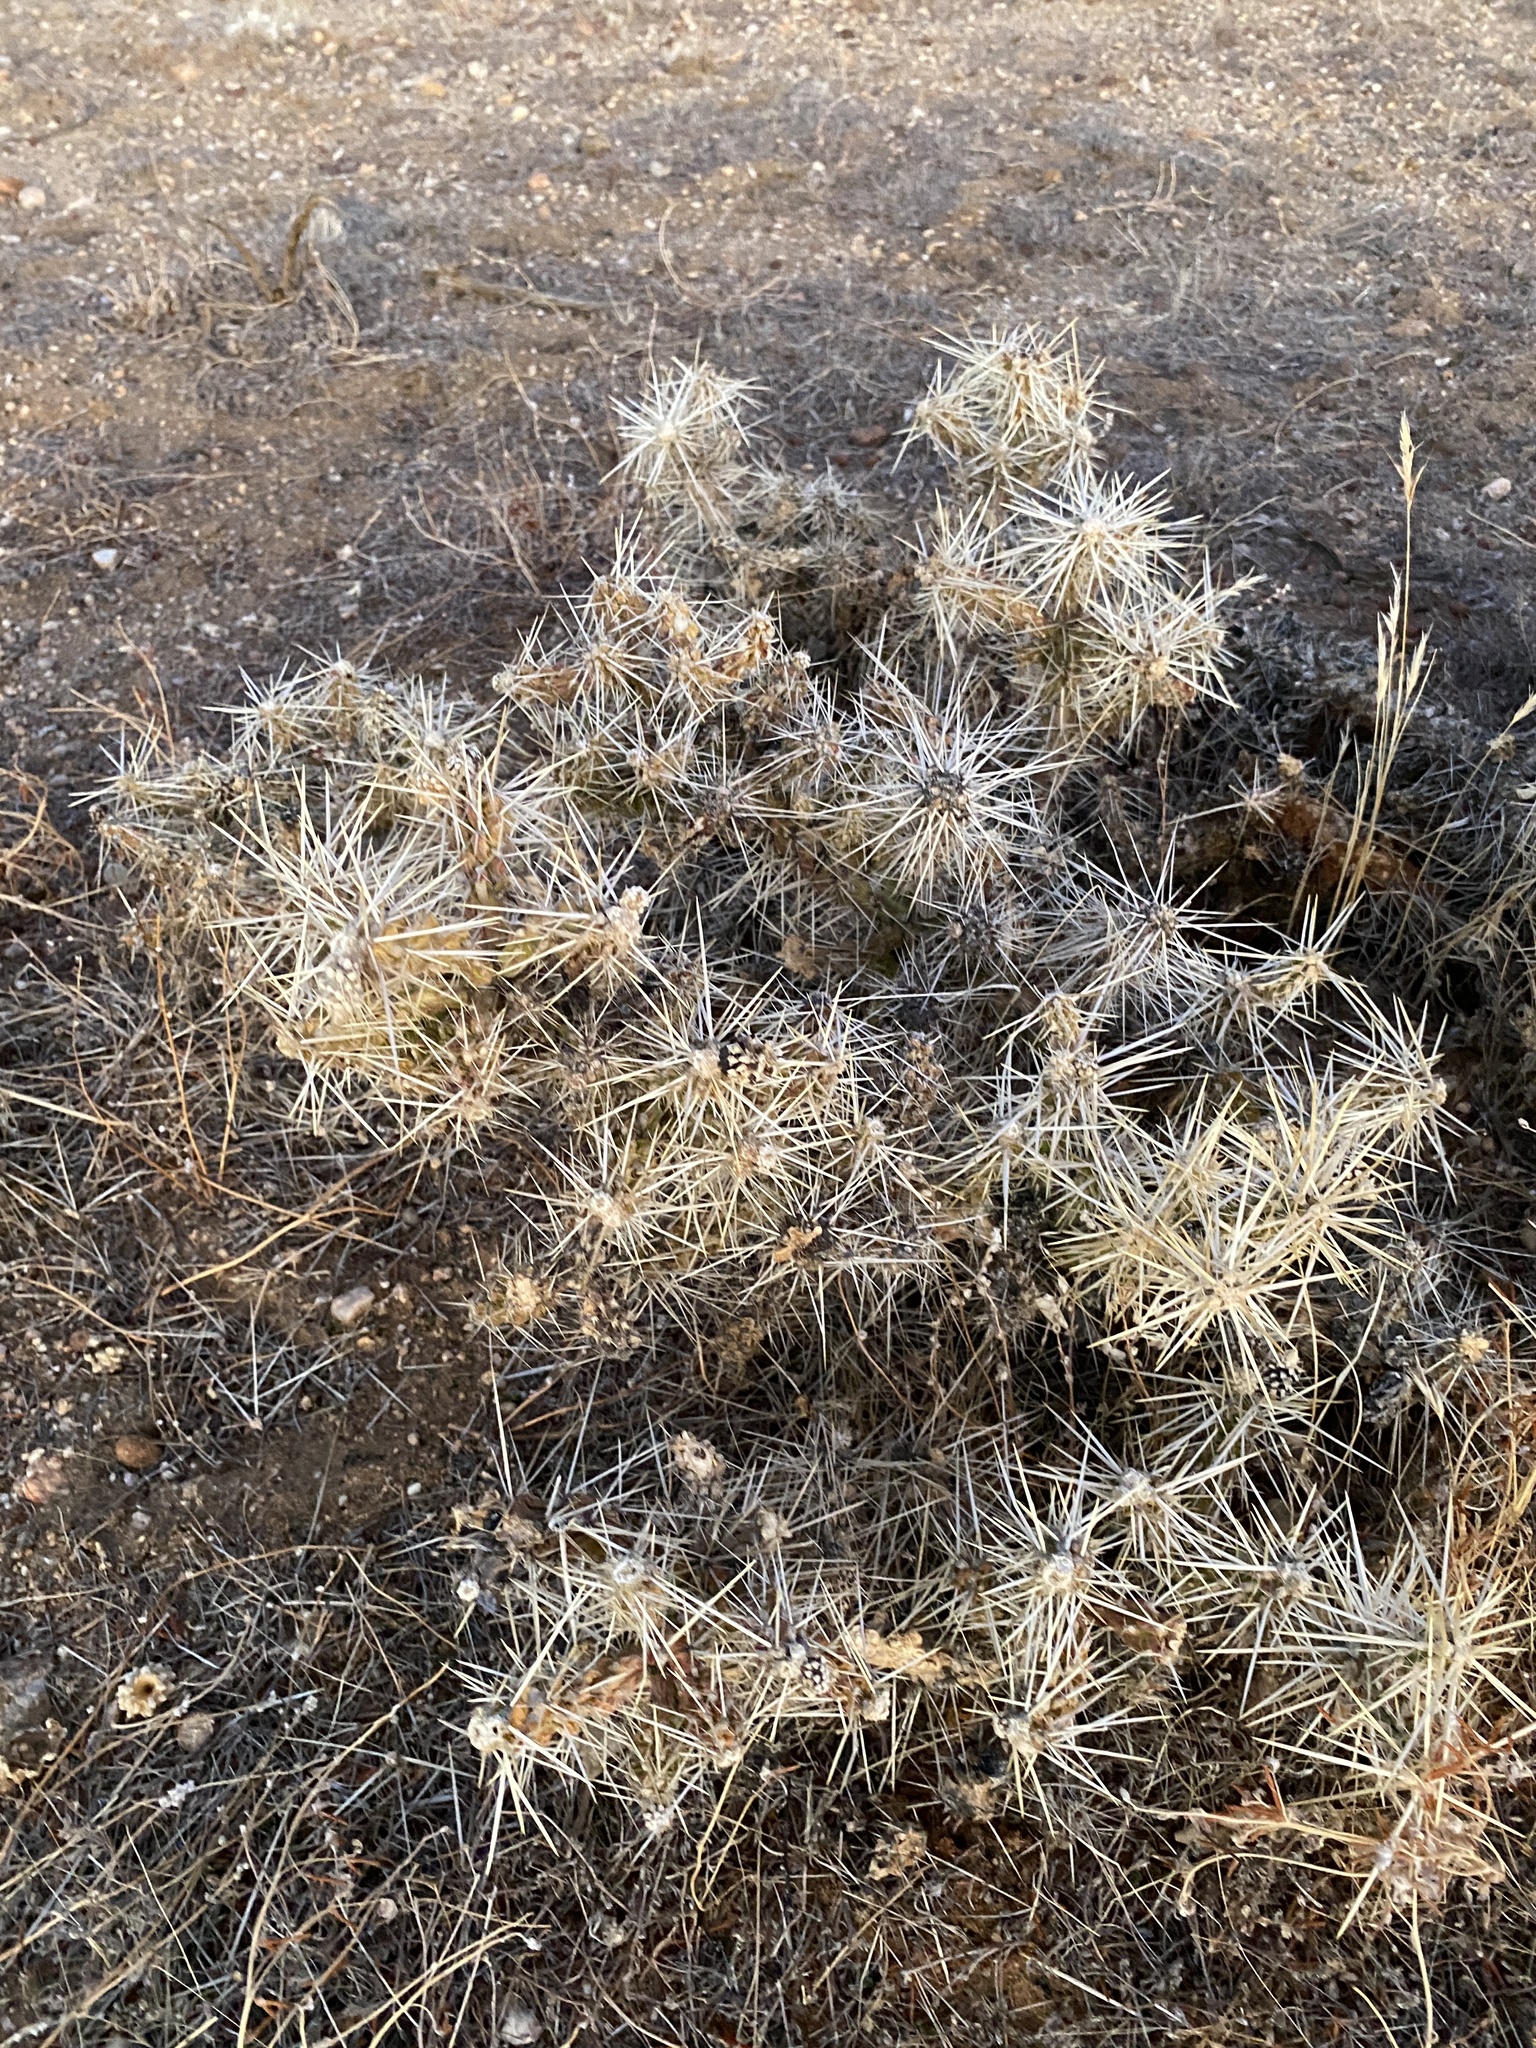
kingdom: Plantae
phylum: Tracheophyta
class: Magnoliopsida
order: Caryophyllales
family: Cactaceae
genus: Cylindropuntia
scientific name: Cylindropuntia whipplei
